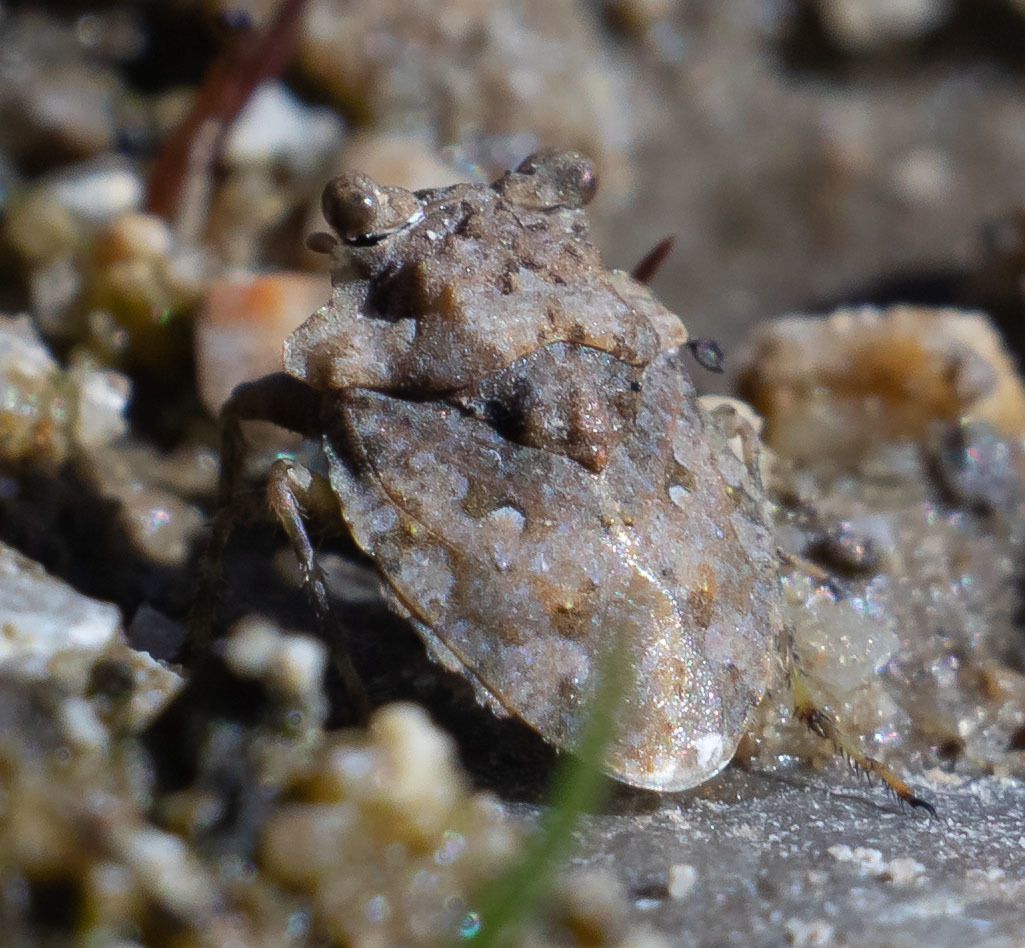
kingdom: Animalia
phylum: Arthropoda
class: Insecta
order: Hemiptera
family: Gelastocoridae
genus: Gelastocoris
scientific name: Gelastocoris oculatus
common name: Toad bug
